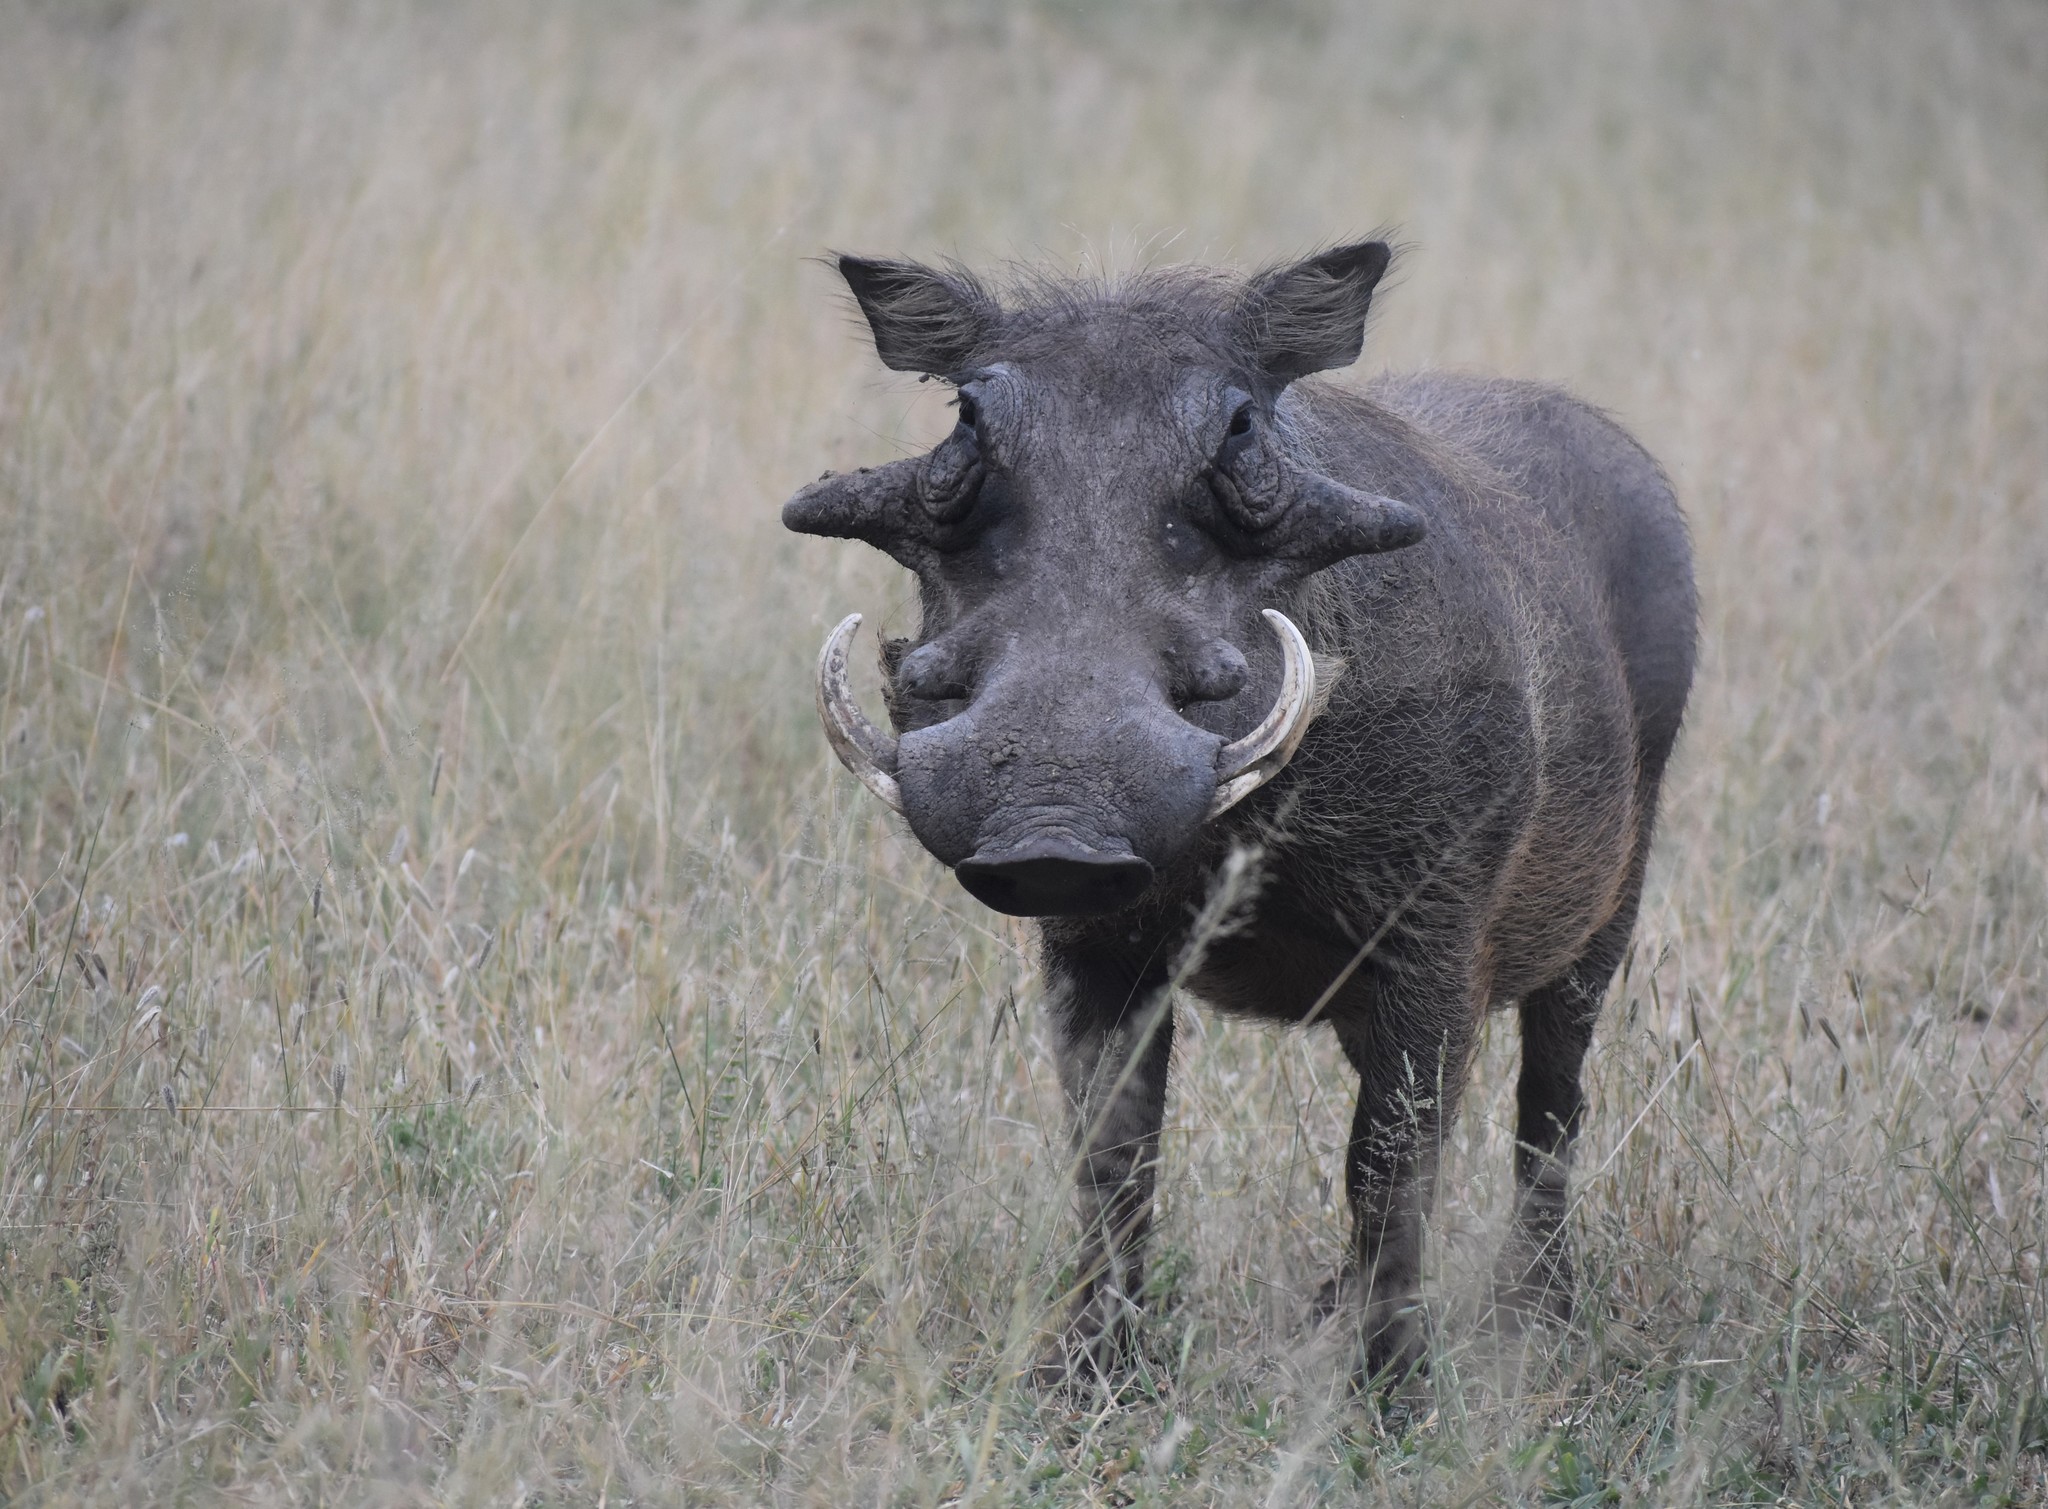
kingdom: Animalia
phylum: Chordata
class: Mammalia
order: Artiodactyla
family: Suidae
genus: Phacochoerus
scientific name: Phacochoerus africanus
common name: Common warthog
